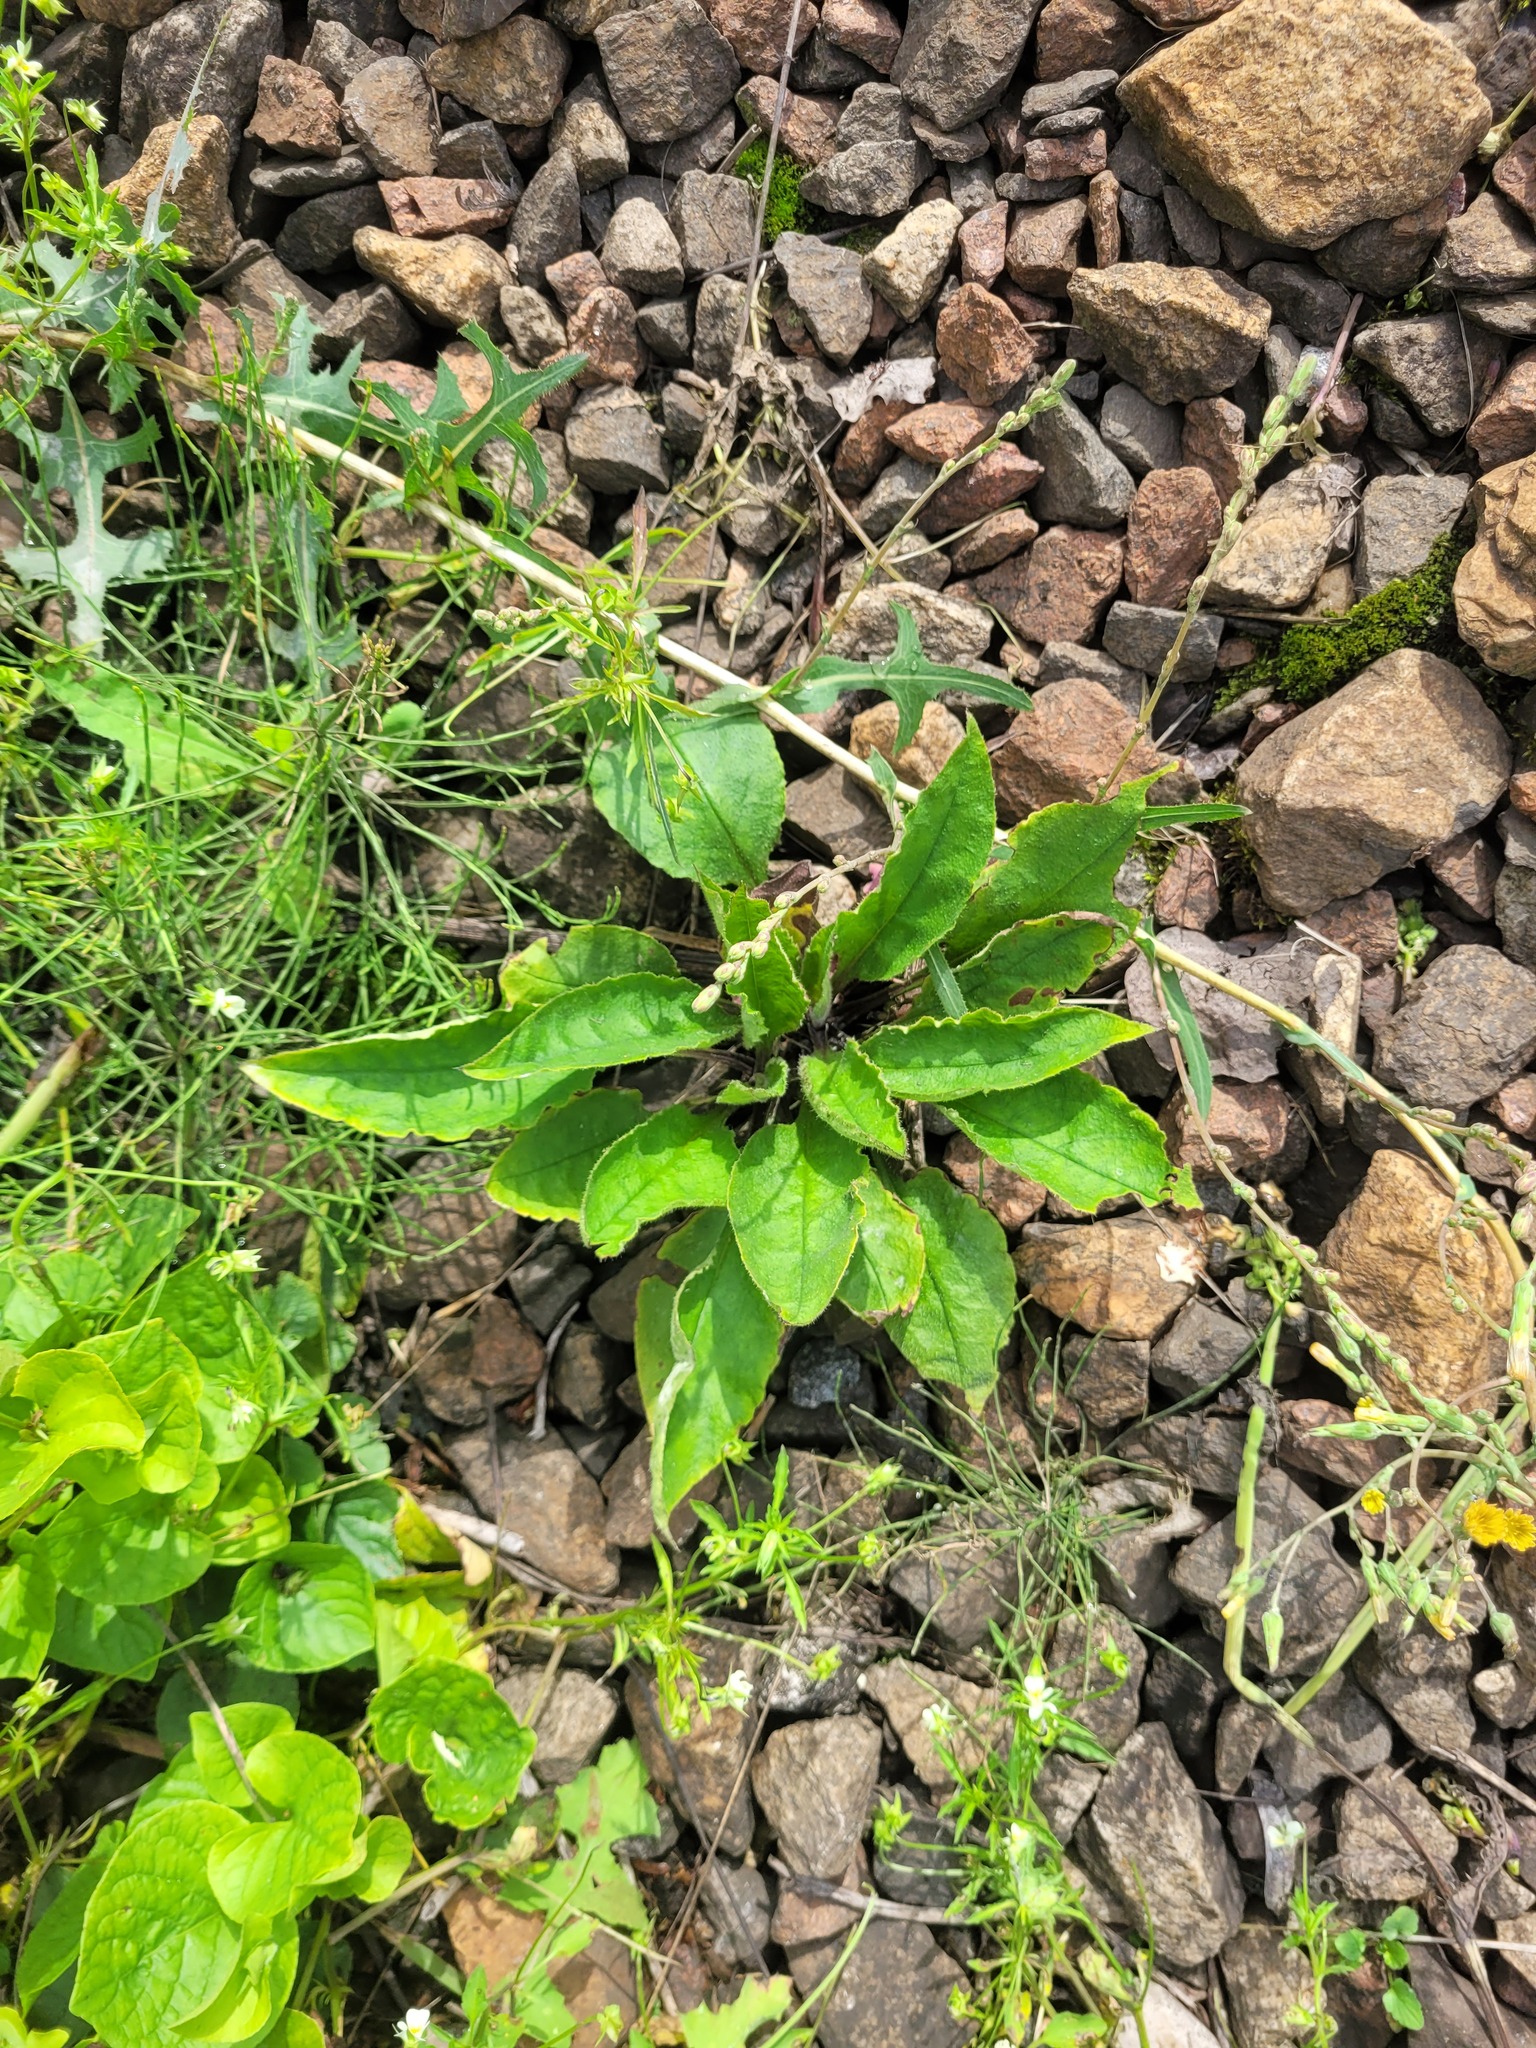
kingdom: Plantae
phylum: Tracheophyta
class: Magnoliopsida
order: Boraginales
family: Boraginaceae
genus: Pulmonaria
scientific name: Pulmonaria obscura
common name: Suffolk lungwort
